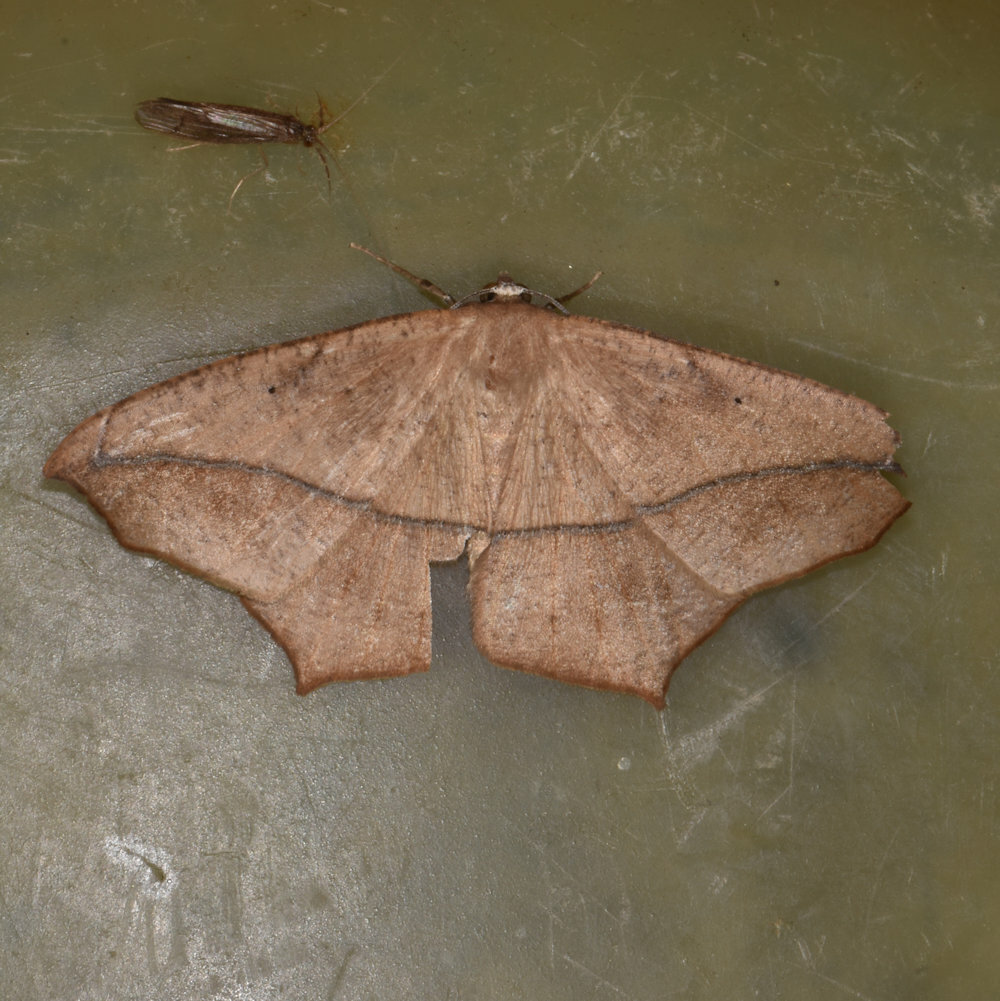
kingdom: Animalia
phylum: Arthropoda
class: Insecta
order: Lepidoptera
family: Geometridae
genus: Prochoerodes
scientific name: Prochoerodes lineola
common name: Large maple spanworm
